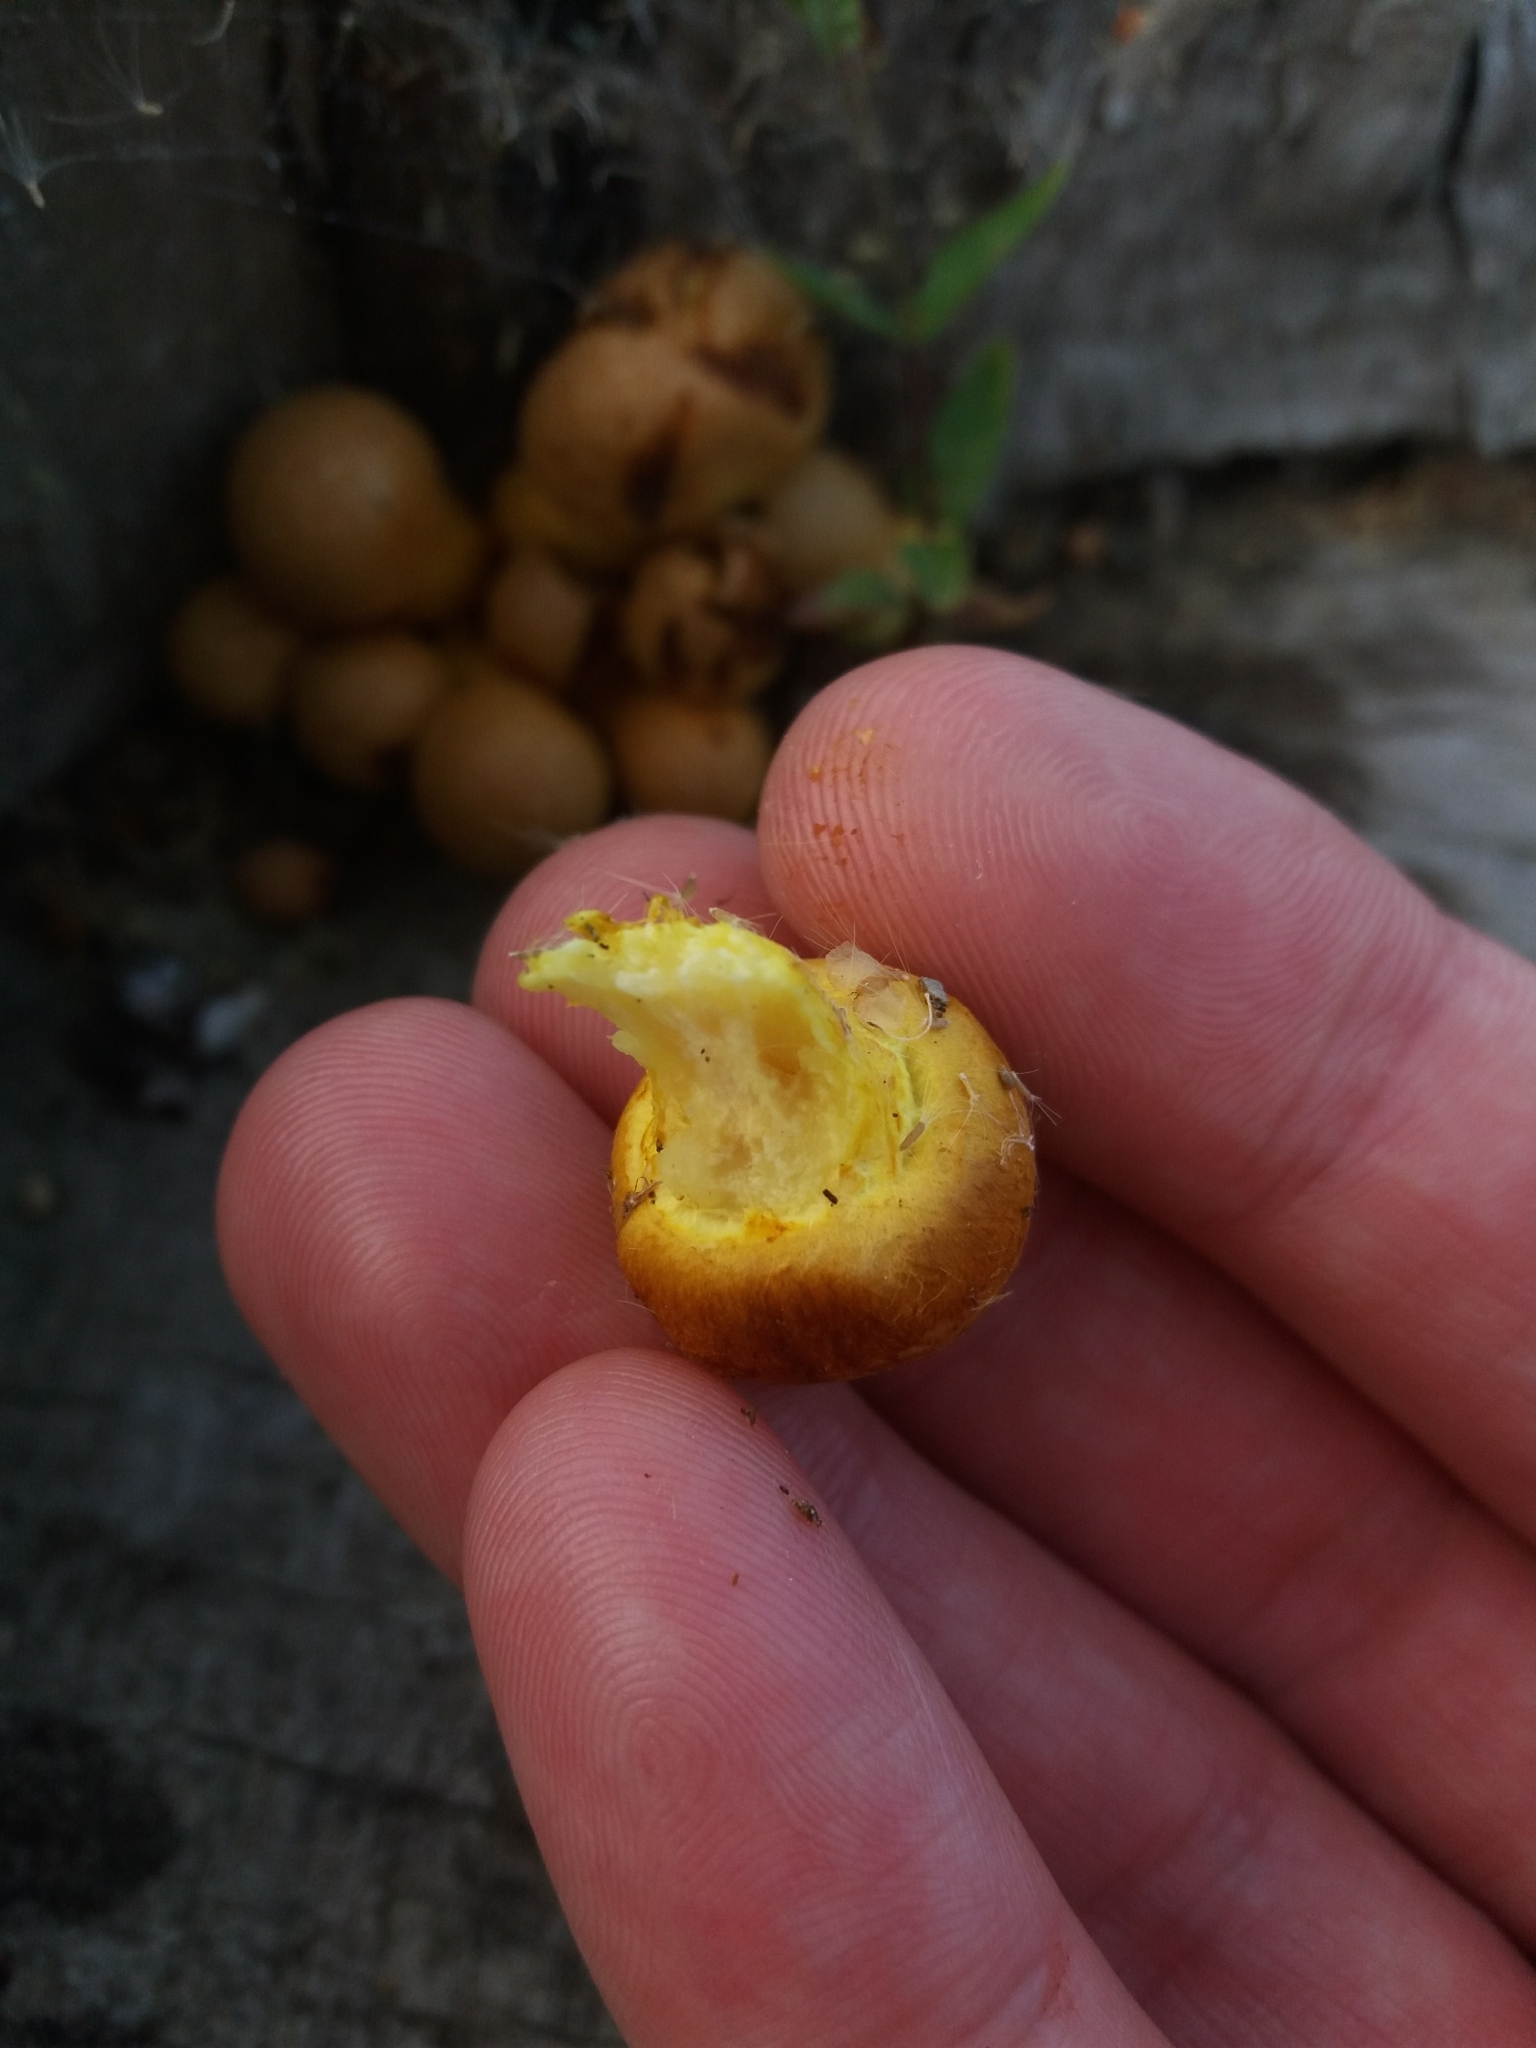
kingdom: Fungi
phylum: Basidiomycota
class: Agaricomycetes
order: Agaricales
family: Hymenogastraceae
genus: Gymnopilus
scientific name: Gymnopilus junonius
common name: Spectacular rustgill
